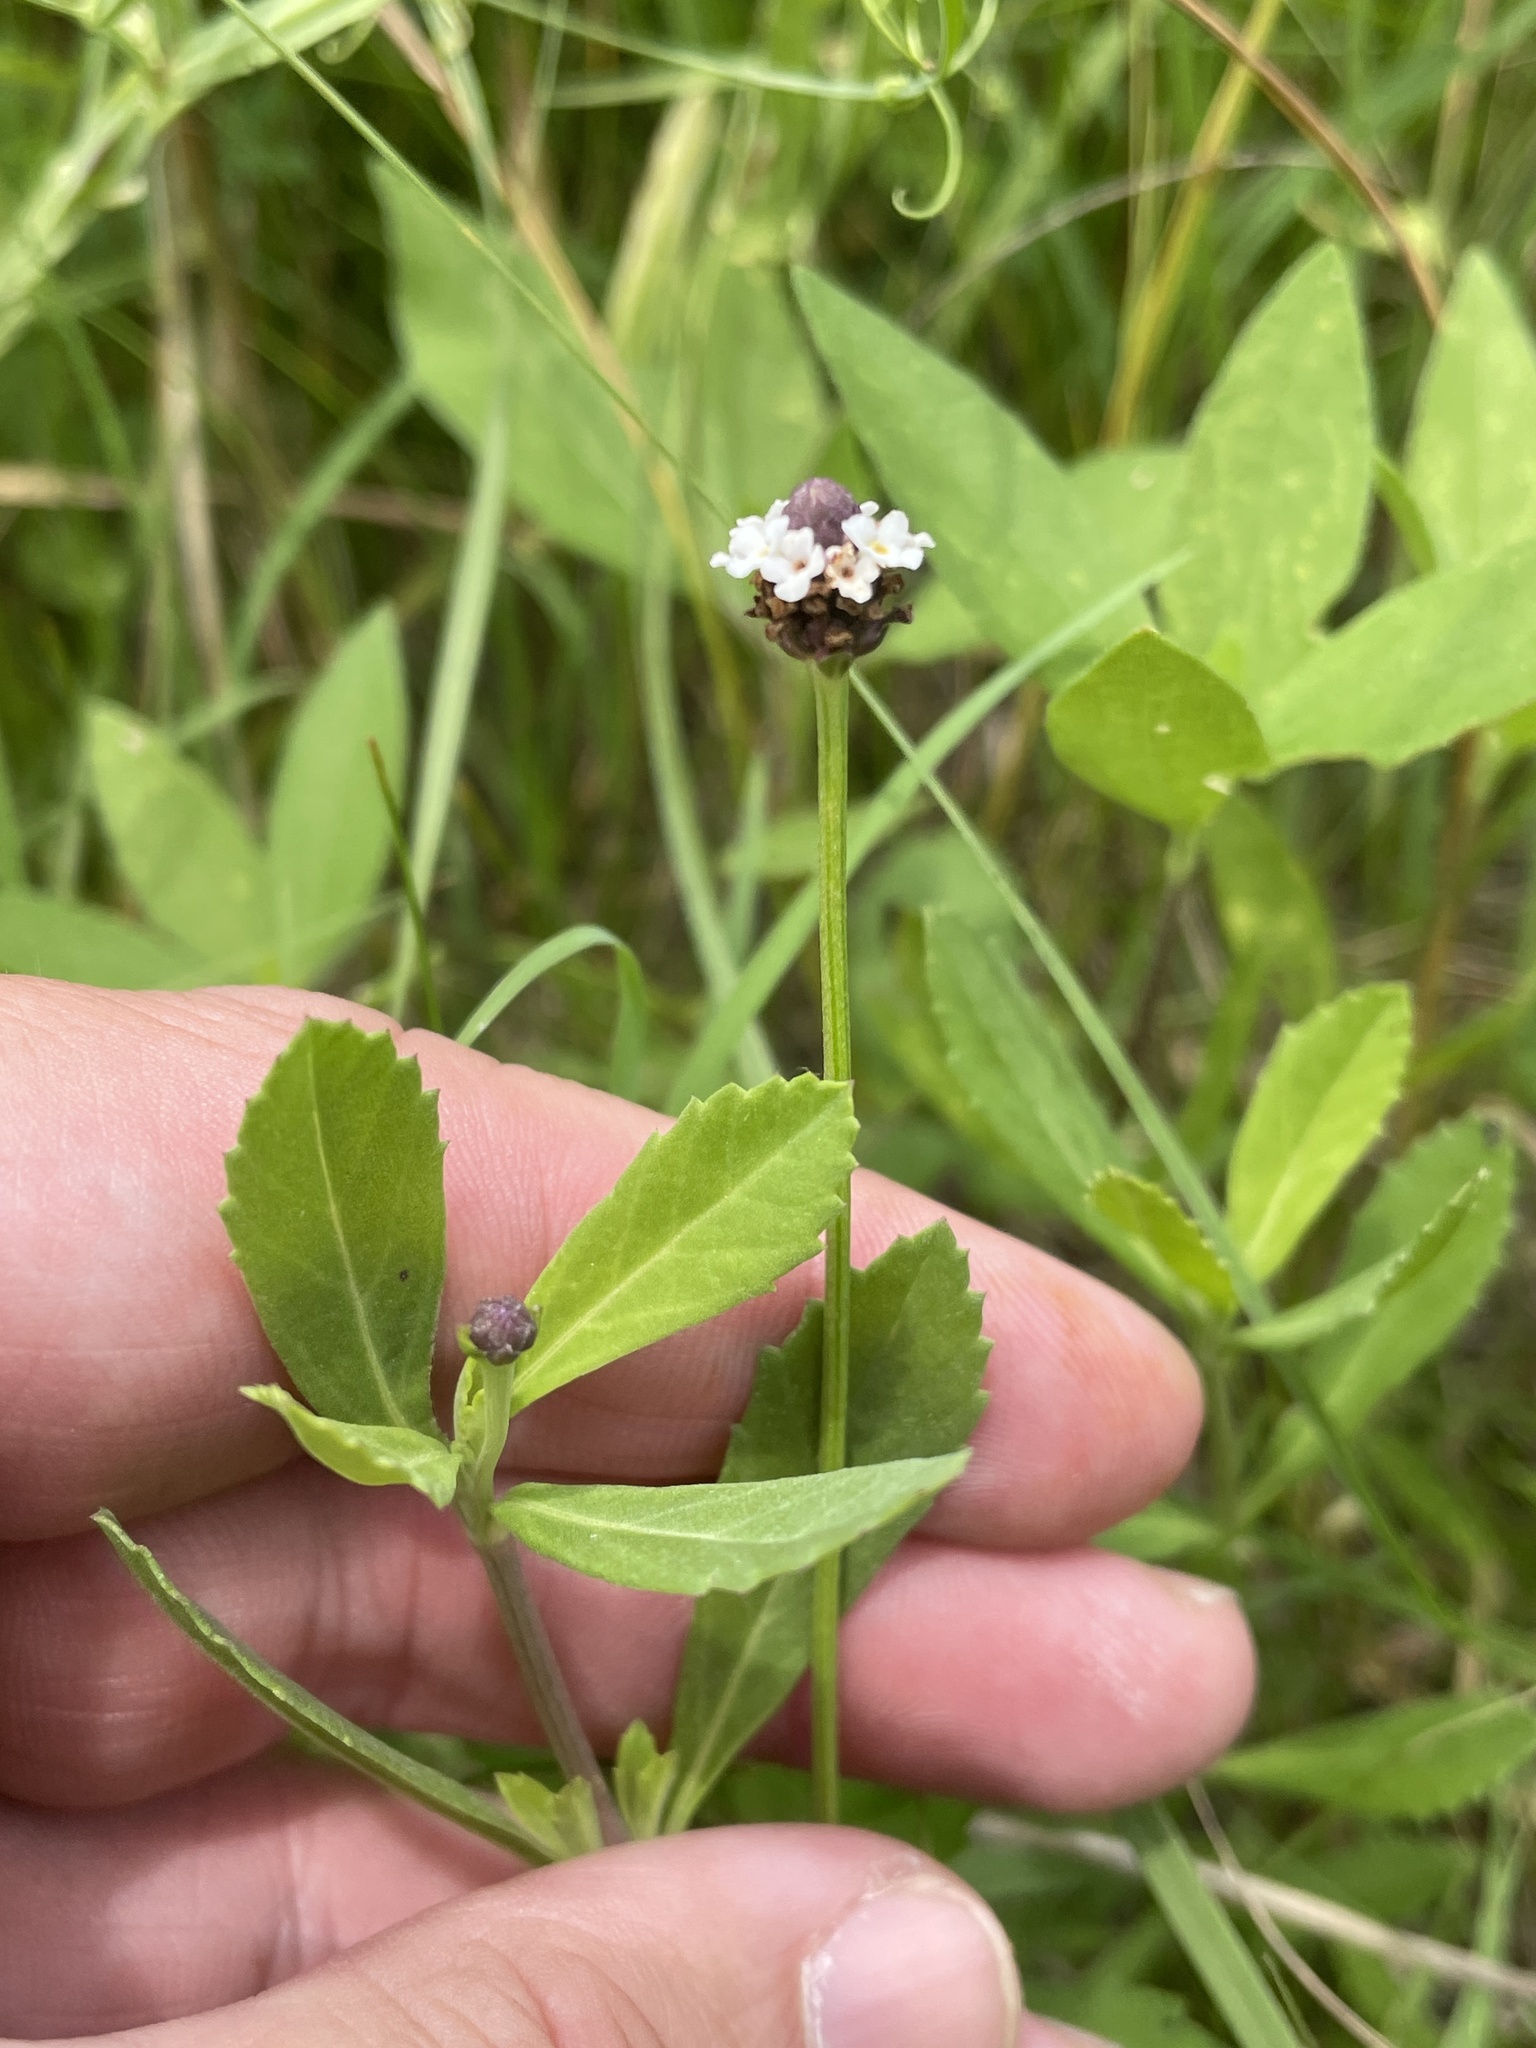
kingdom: Plantae
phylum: Tracheophyta
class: Magnoliopsida
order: Lamiales
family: Verbenaceae
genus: Phyla
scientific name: Phyla lanceolata
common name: Northern fogfruit
